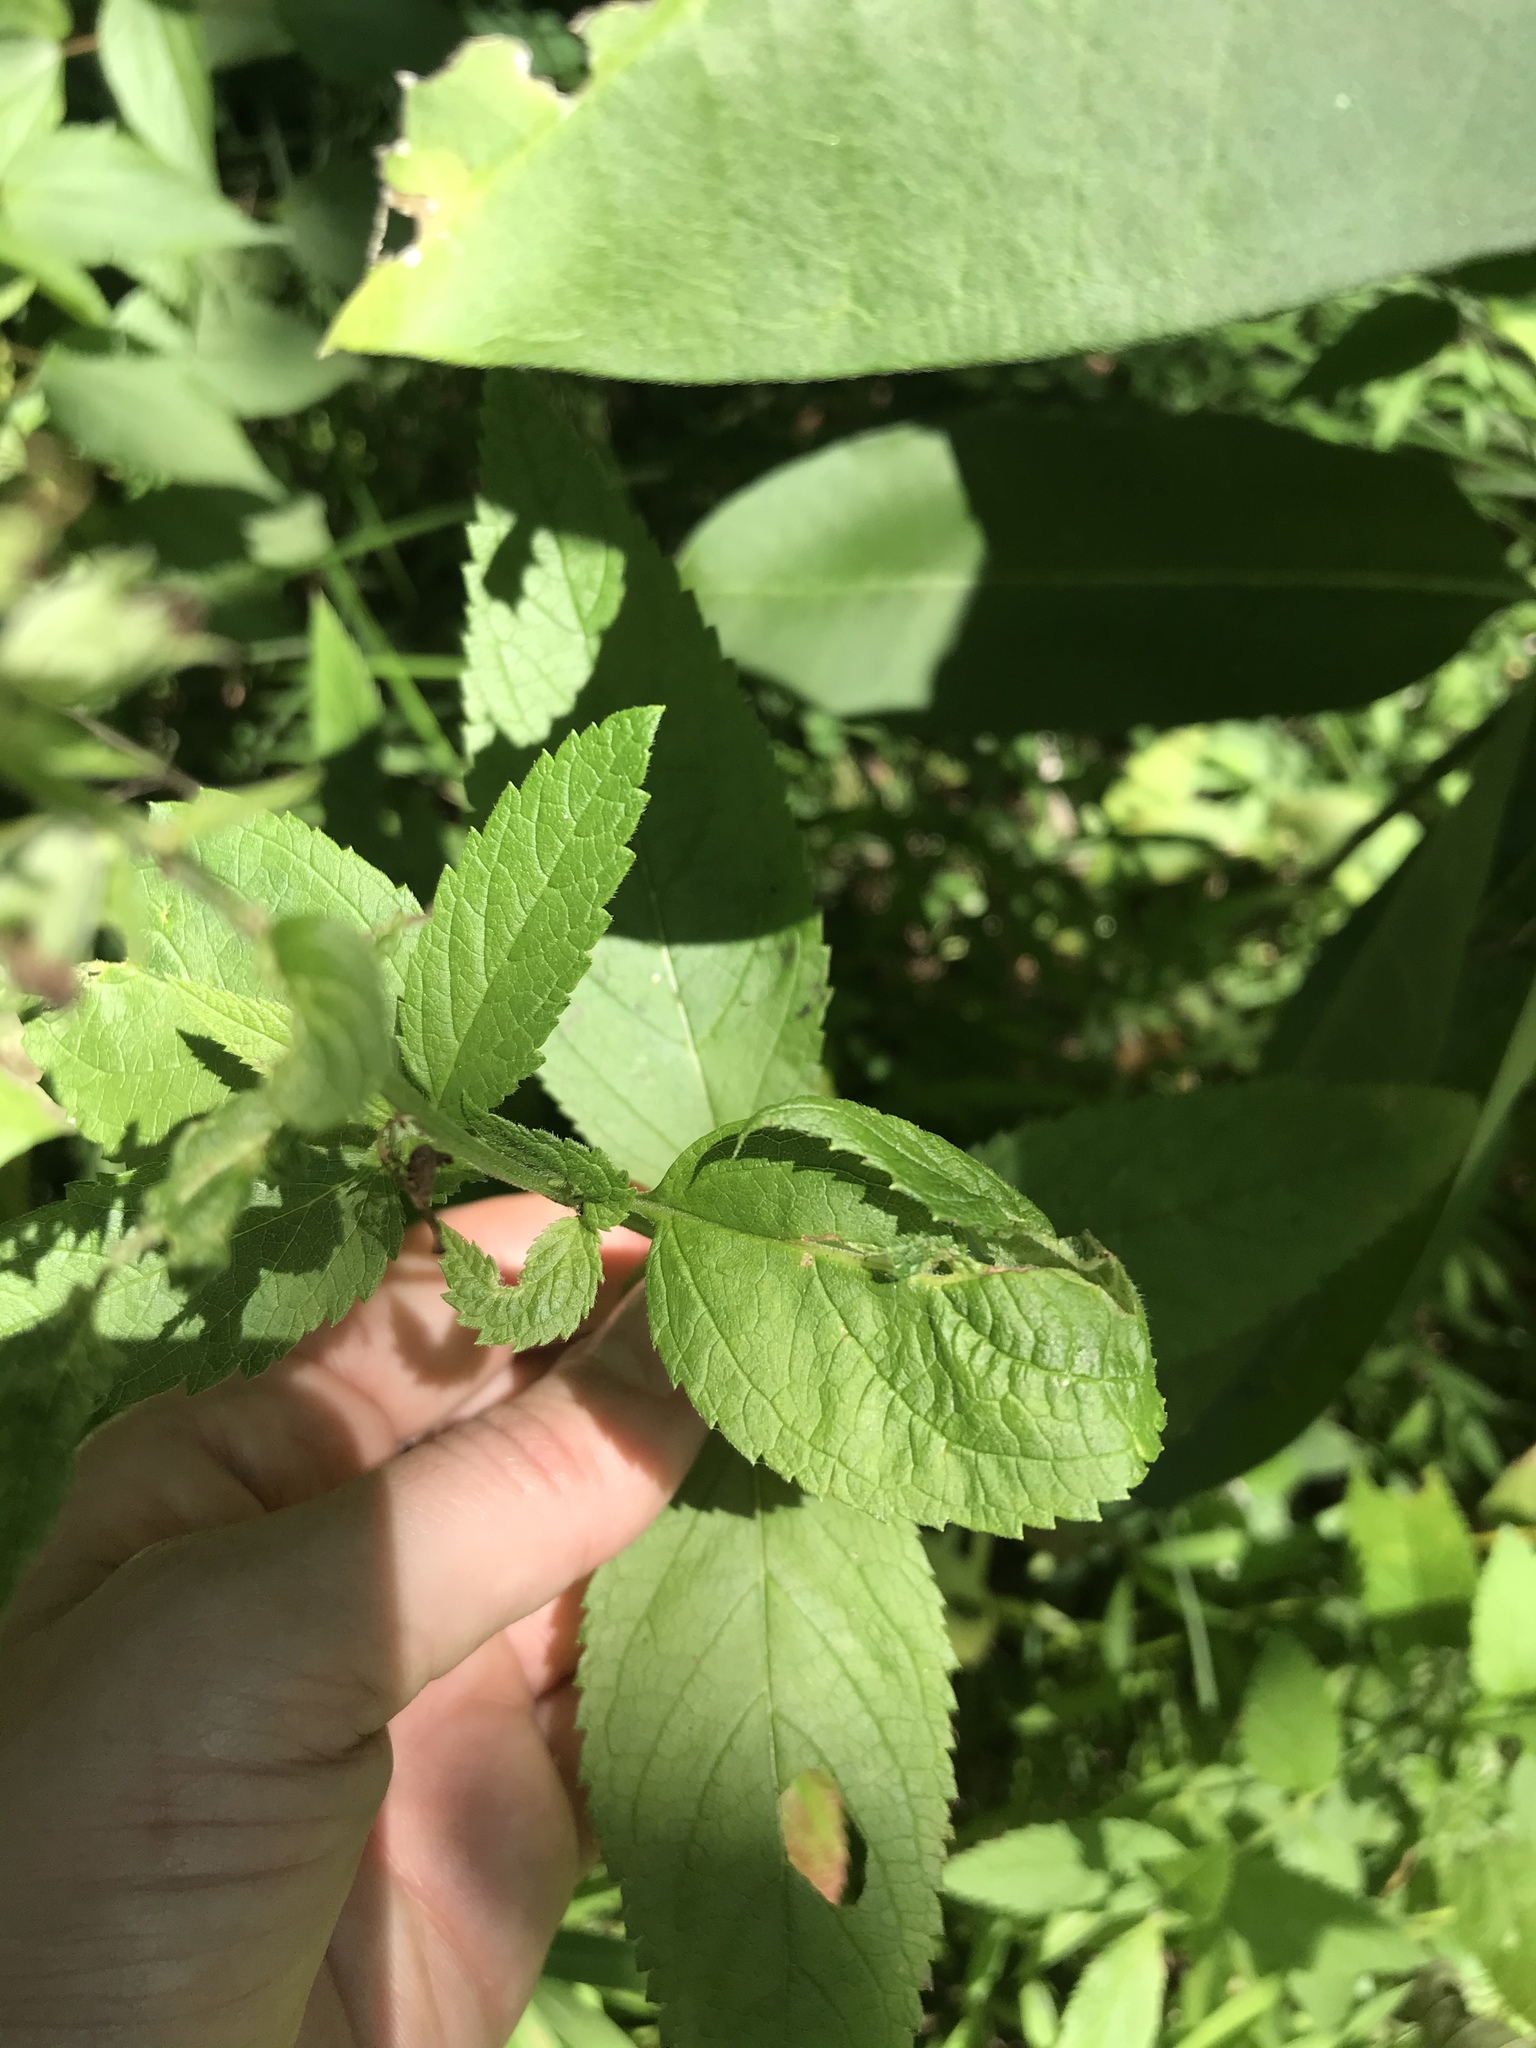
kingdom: Plantae
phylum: Tracheophyta
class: Magnoliopsida
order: Lamiales
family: Lamiaceae
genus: Teucrium
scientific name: Teucrium canadense
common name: American germander
